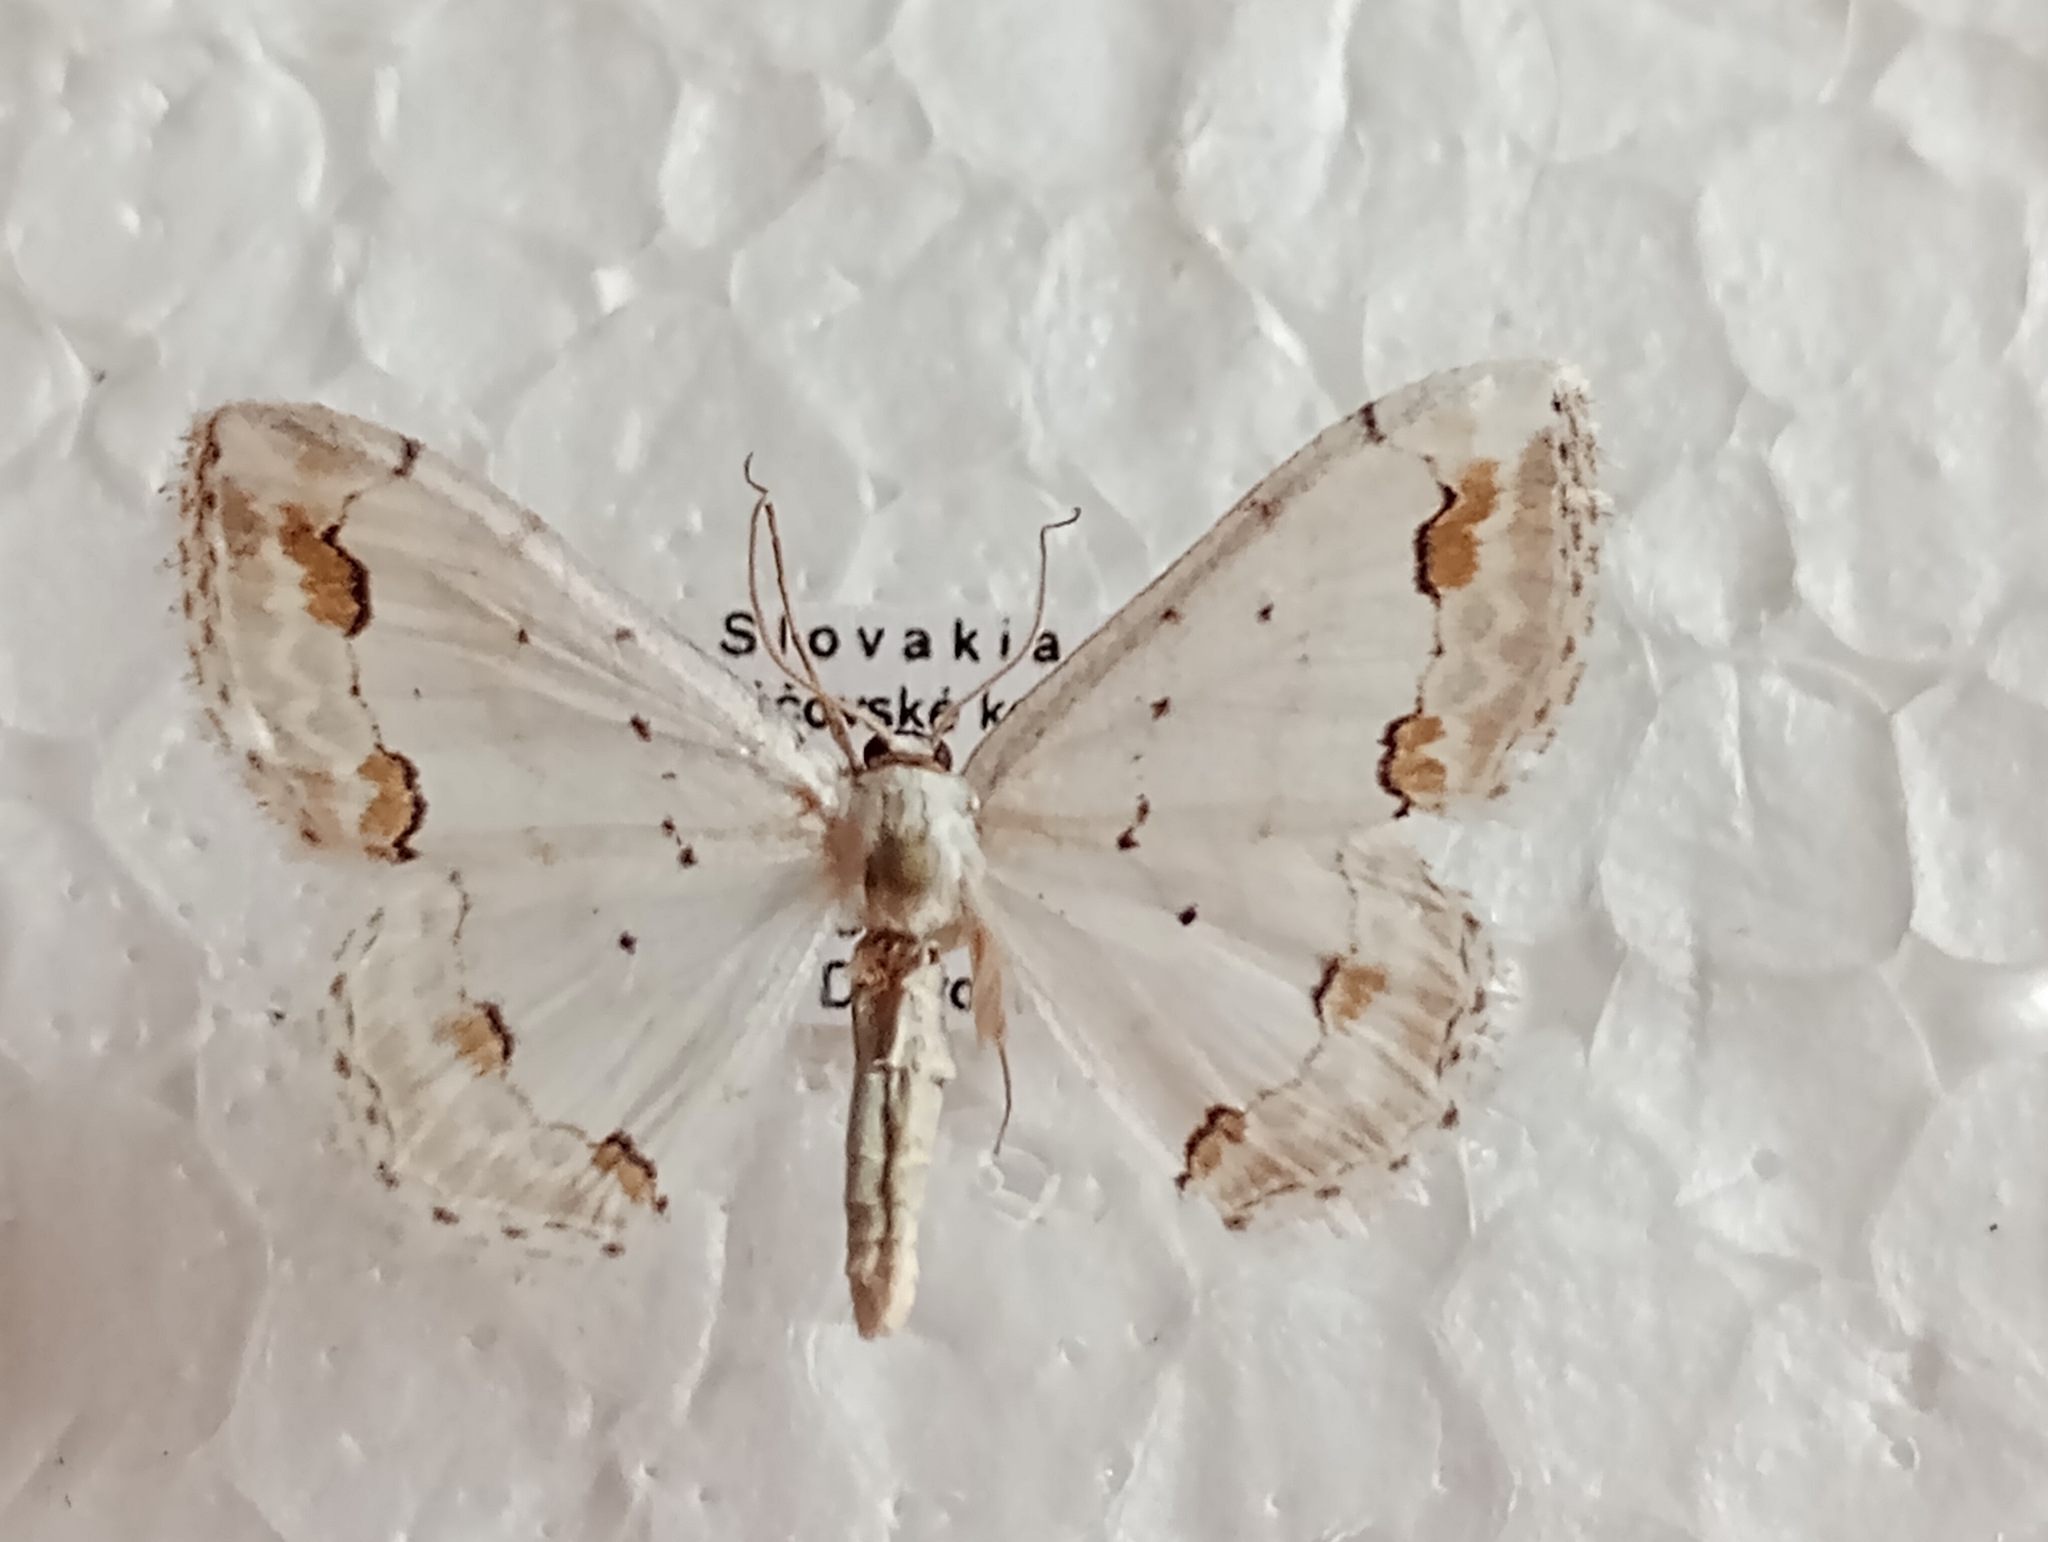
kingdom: Animalia
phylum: Arthropoda
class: Insecta
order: Lepidoptera
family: Geometridae
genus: Scopula
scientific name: Scopula ornata
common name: Lace border
